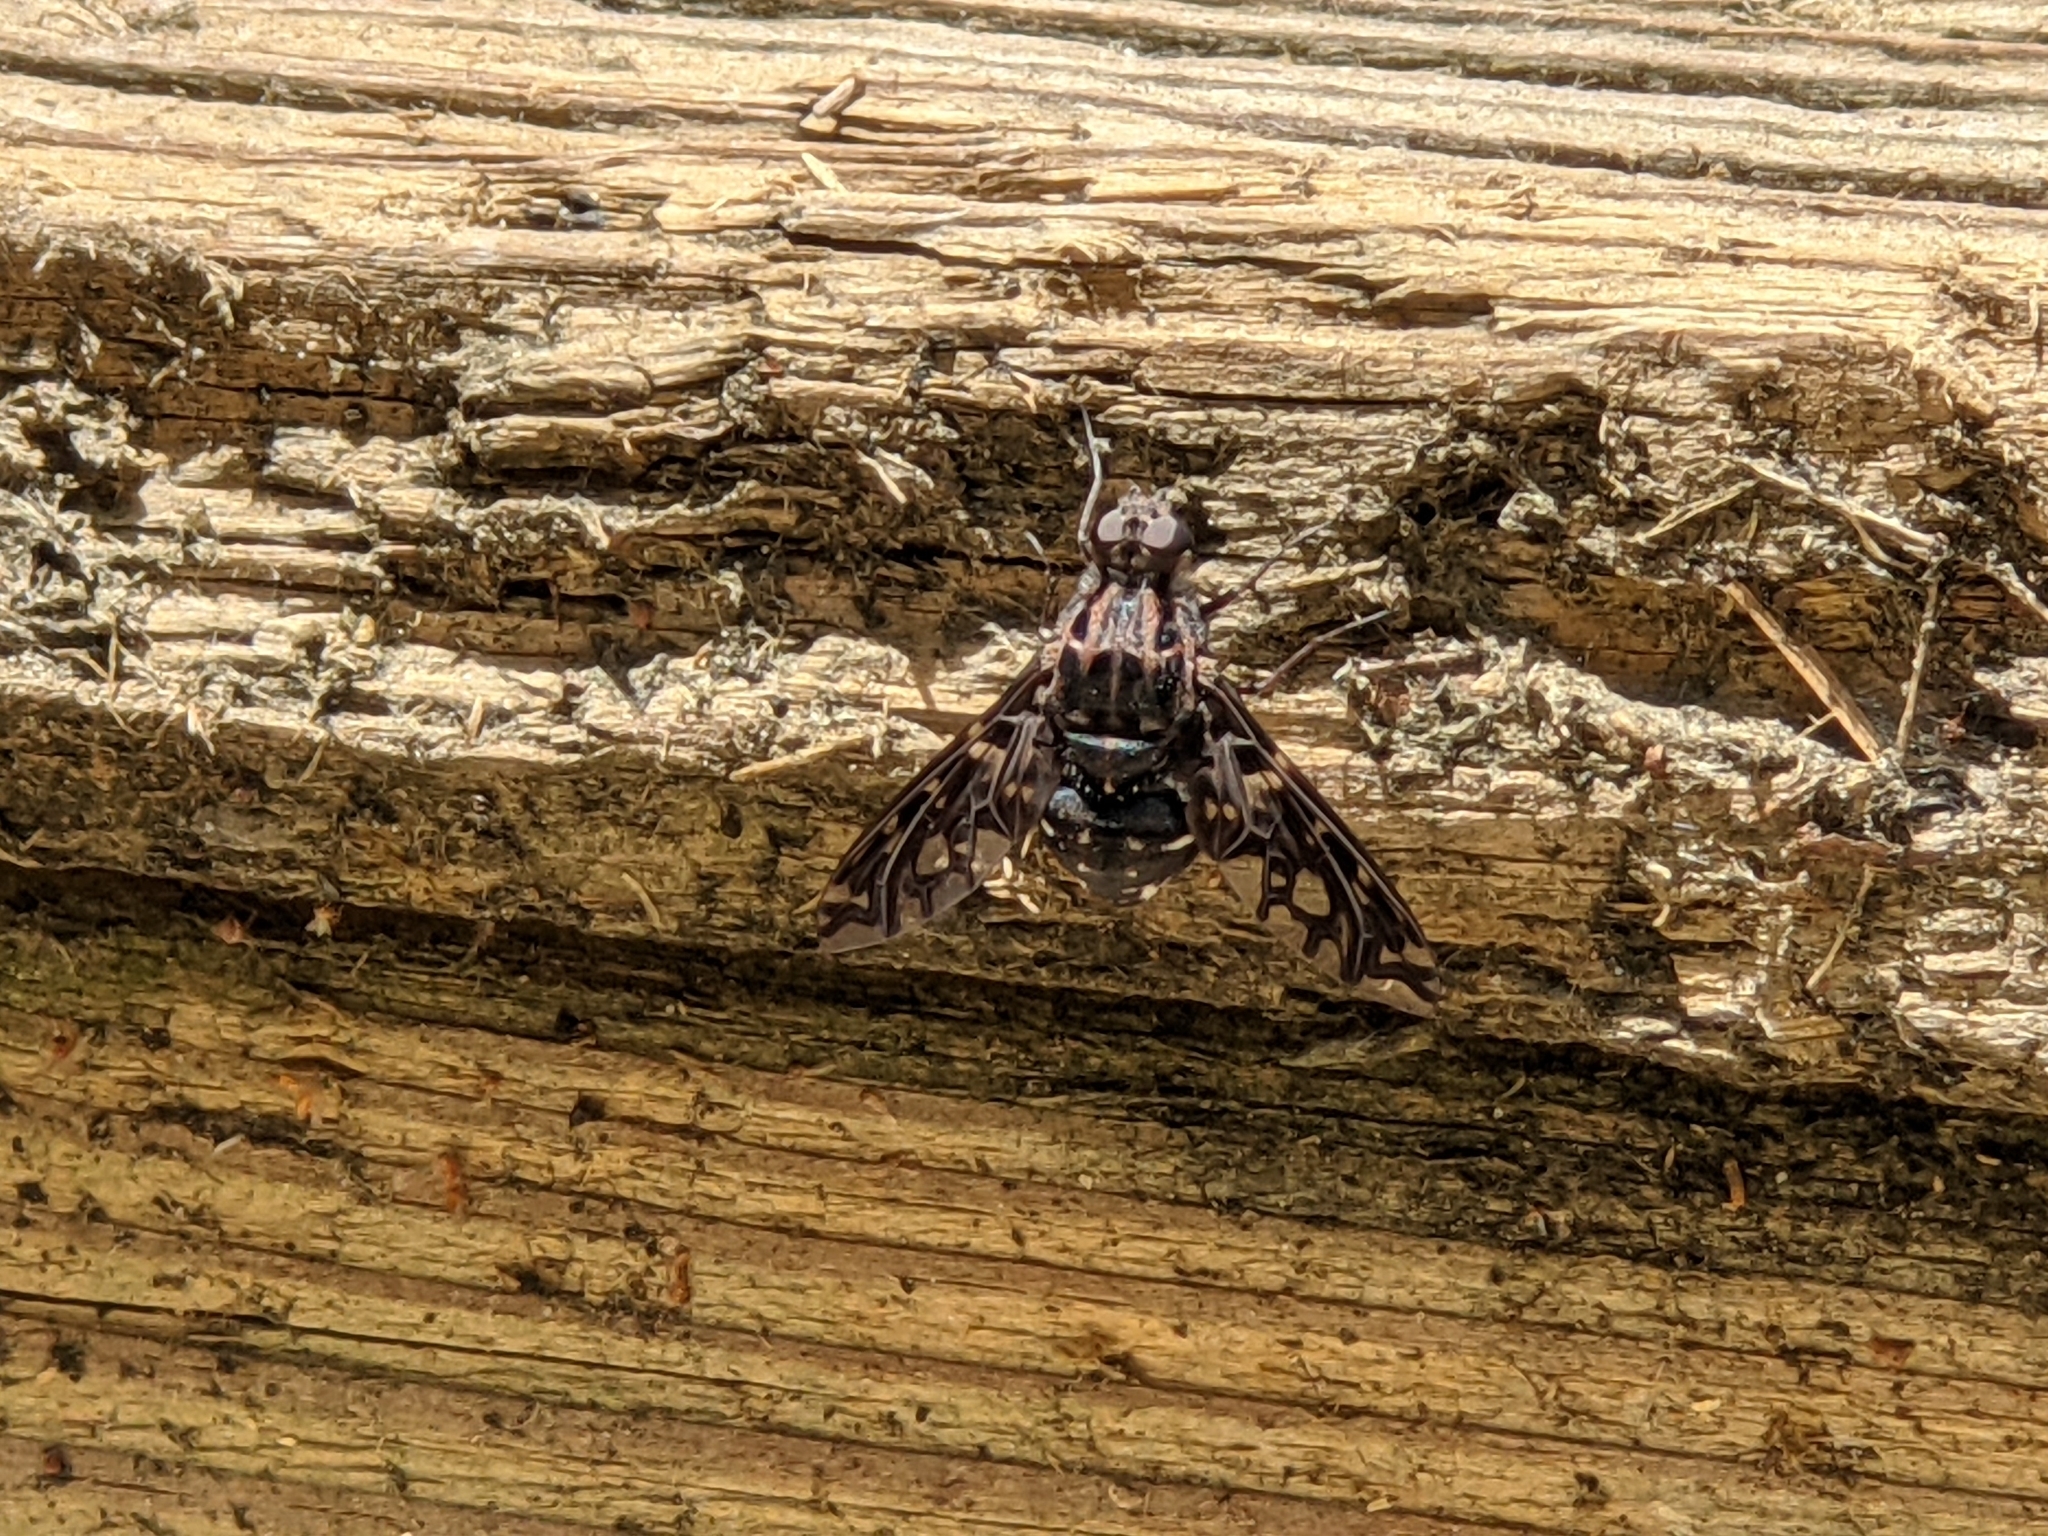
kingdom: Animalia
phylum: Arthropoda
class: Insecta
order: Diptera
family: Bombyliidae
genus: Xenox
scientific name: Xenox tigrinus
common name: Tiger bee fly
